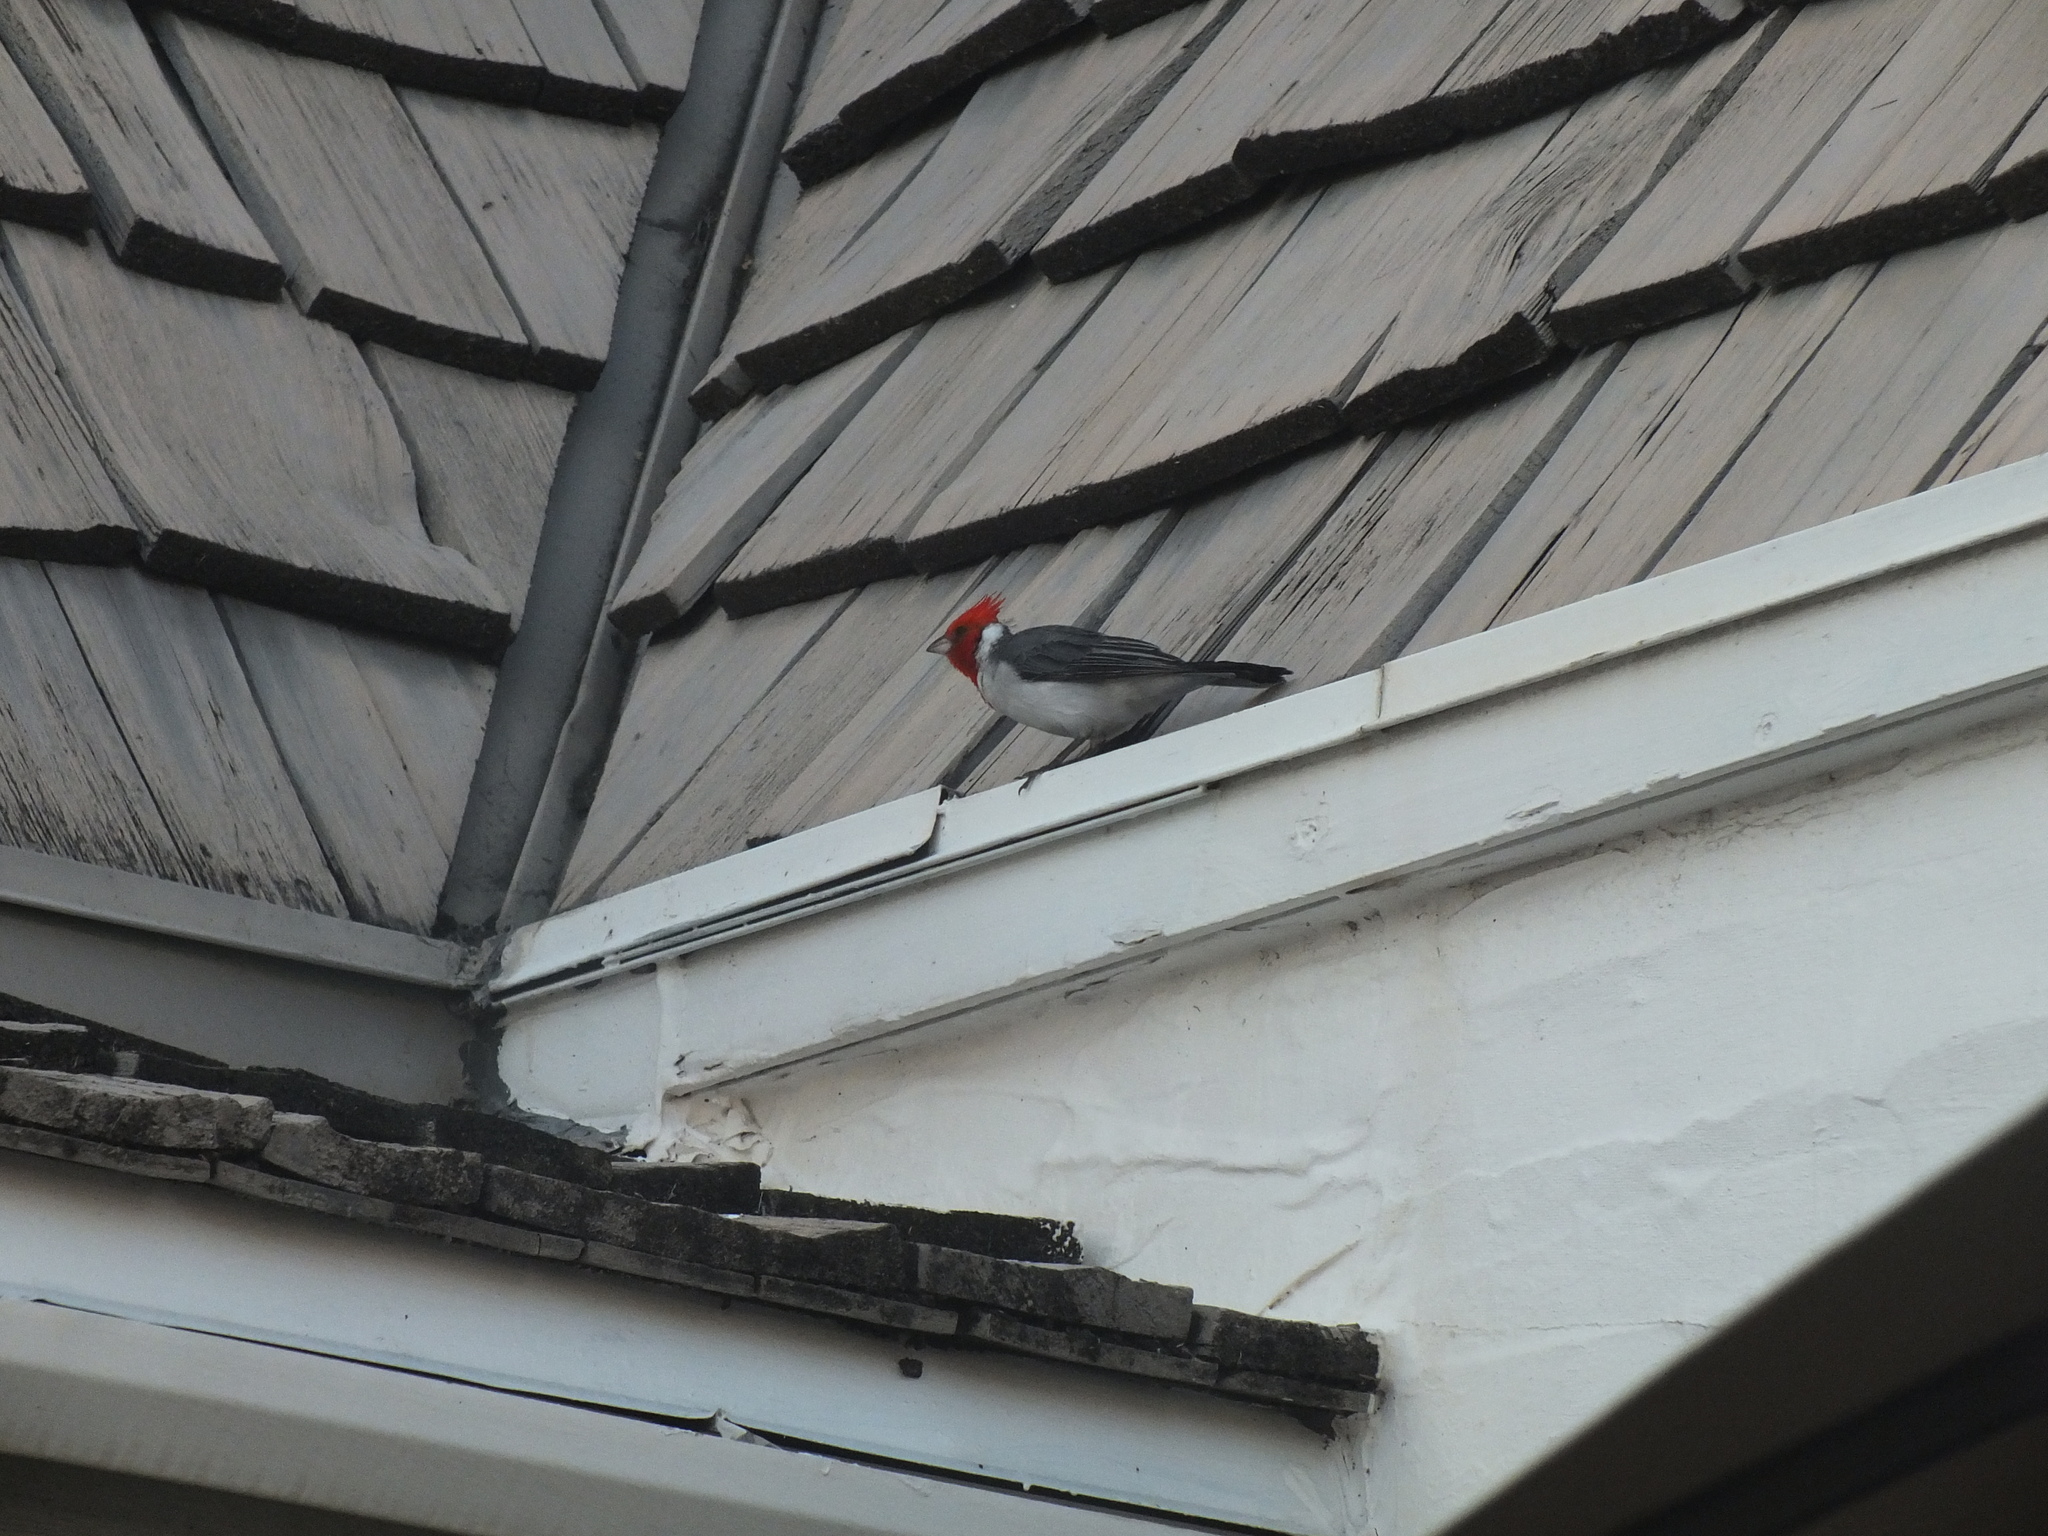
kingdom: Animalia
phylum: Chordata
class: Aves
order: Passeriformes
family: Thraupidae
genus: Paroaria
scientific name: Paroaria coronata
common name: Red-crested cardinal
